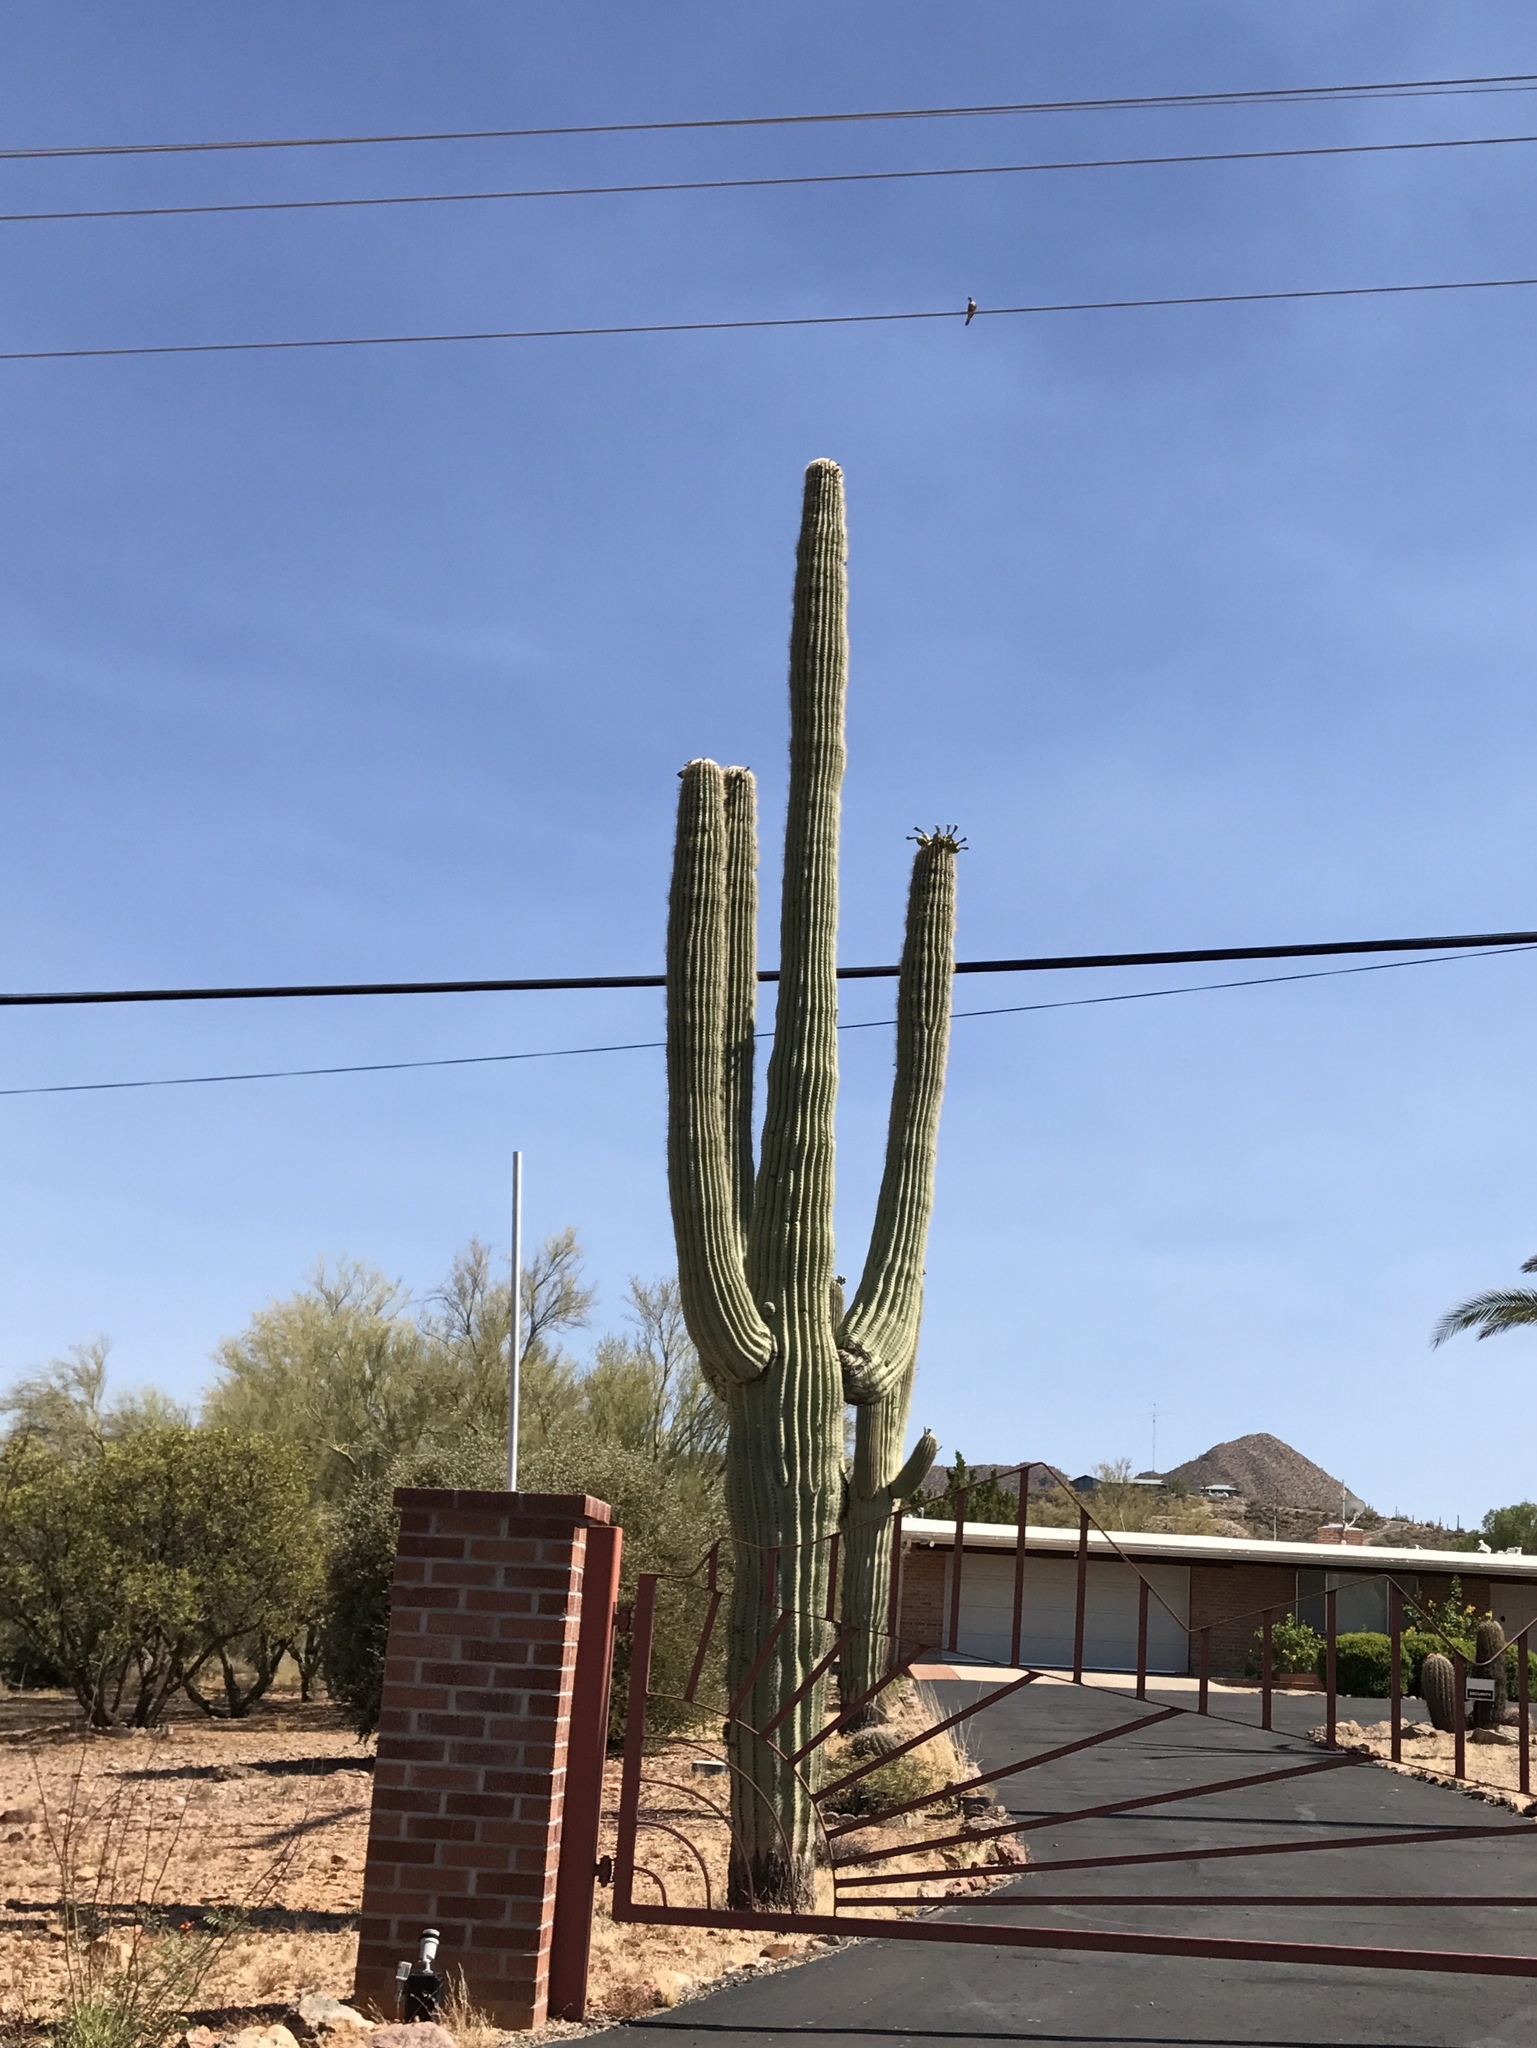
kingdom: Plantae
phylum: Tracheophyta
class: Magnoliopsida
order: Caryophyllales
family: Cactaceae
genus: Carnegiea
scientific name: Carnegiea gigantea
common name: Saguaro
